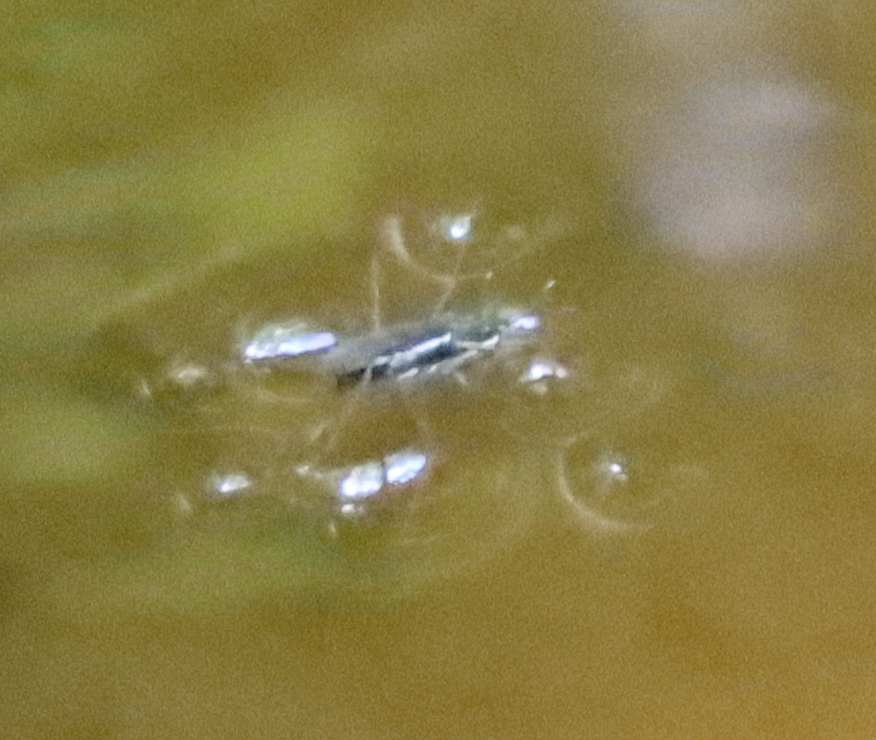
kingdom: Animalia
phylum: Arthropoda
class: Insecta
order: Hemiptera
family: Gerridae
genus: Aquarius
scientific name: Aquarius remigis
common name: Common water strider
